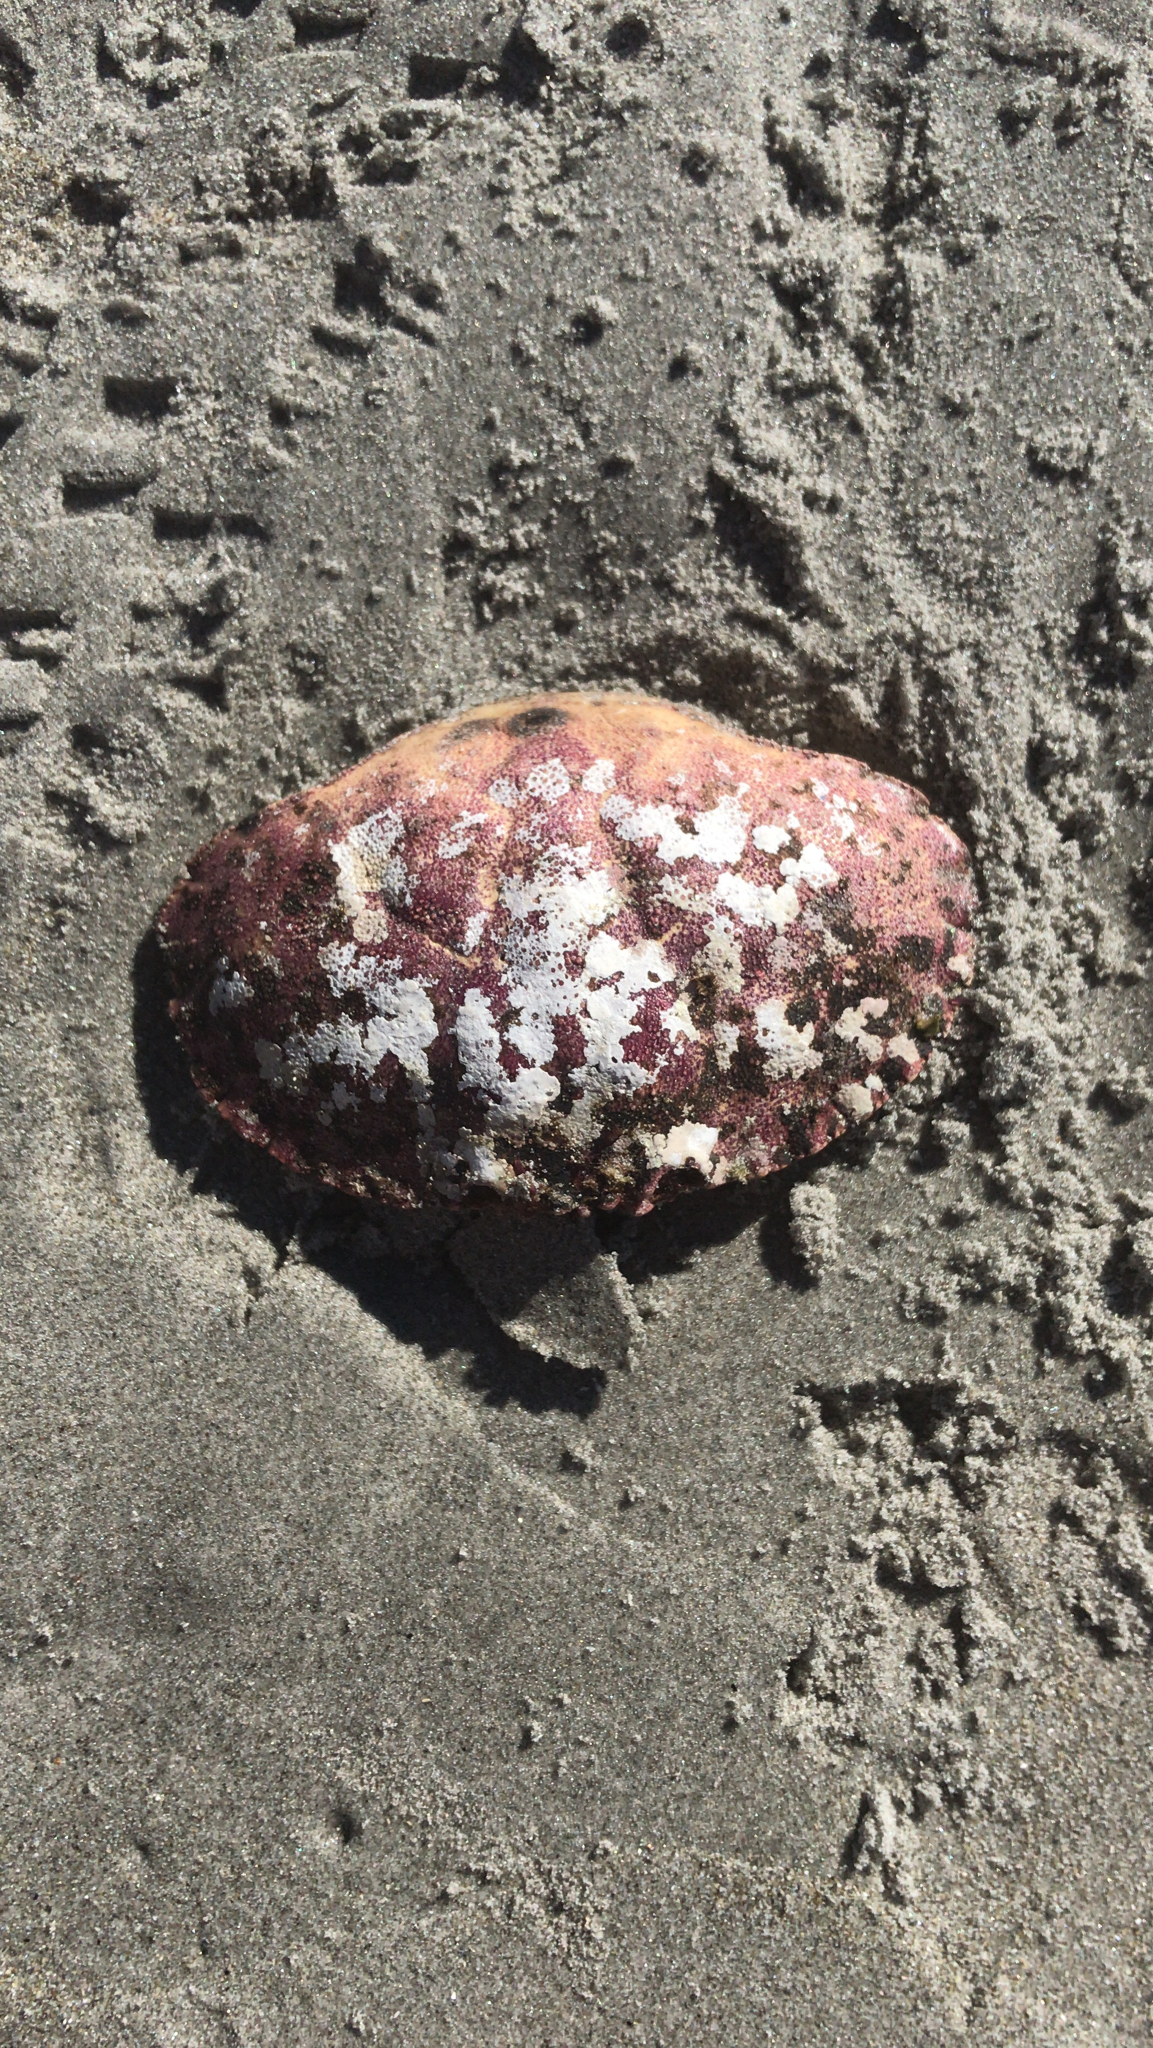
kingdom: Animalia
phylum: Arthropoda
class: Malacostraca
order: Decapoda
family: Cancridae
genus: Cancer
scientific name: Cancer borealis
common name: Jonah crab
